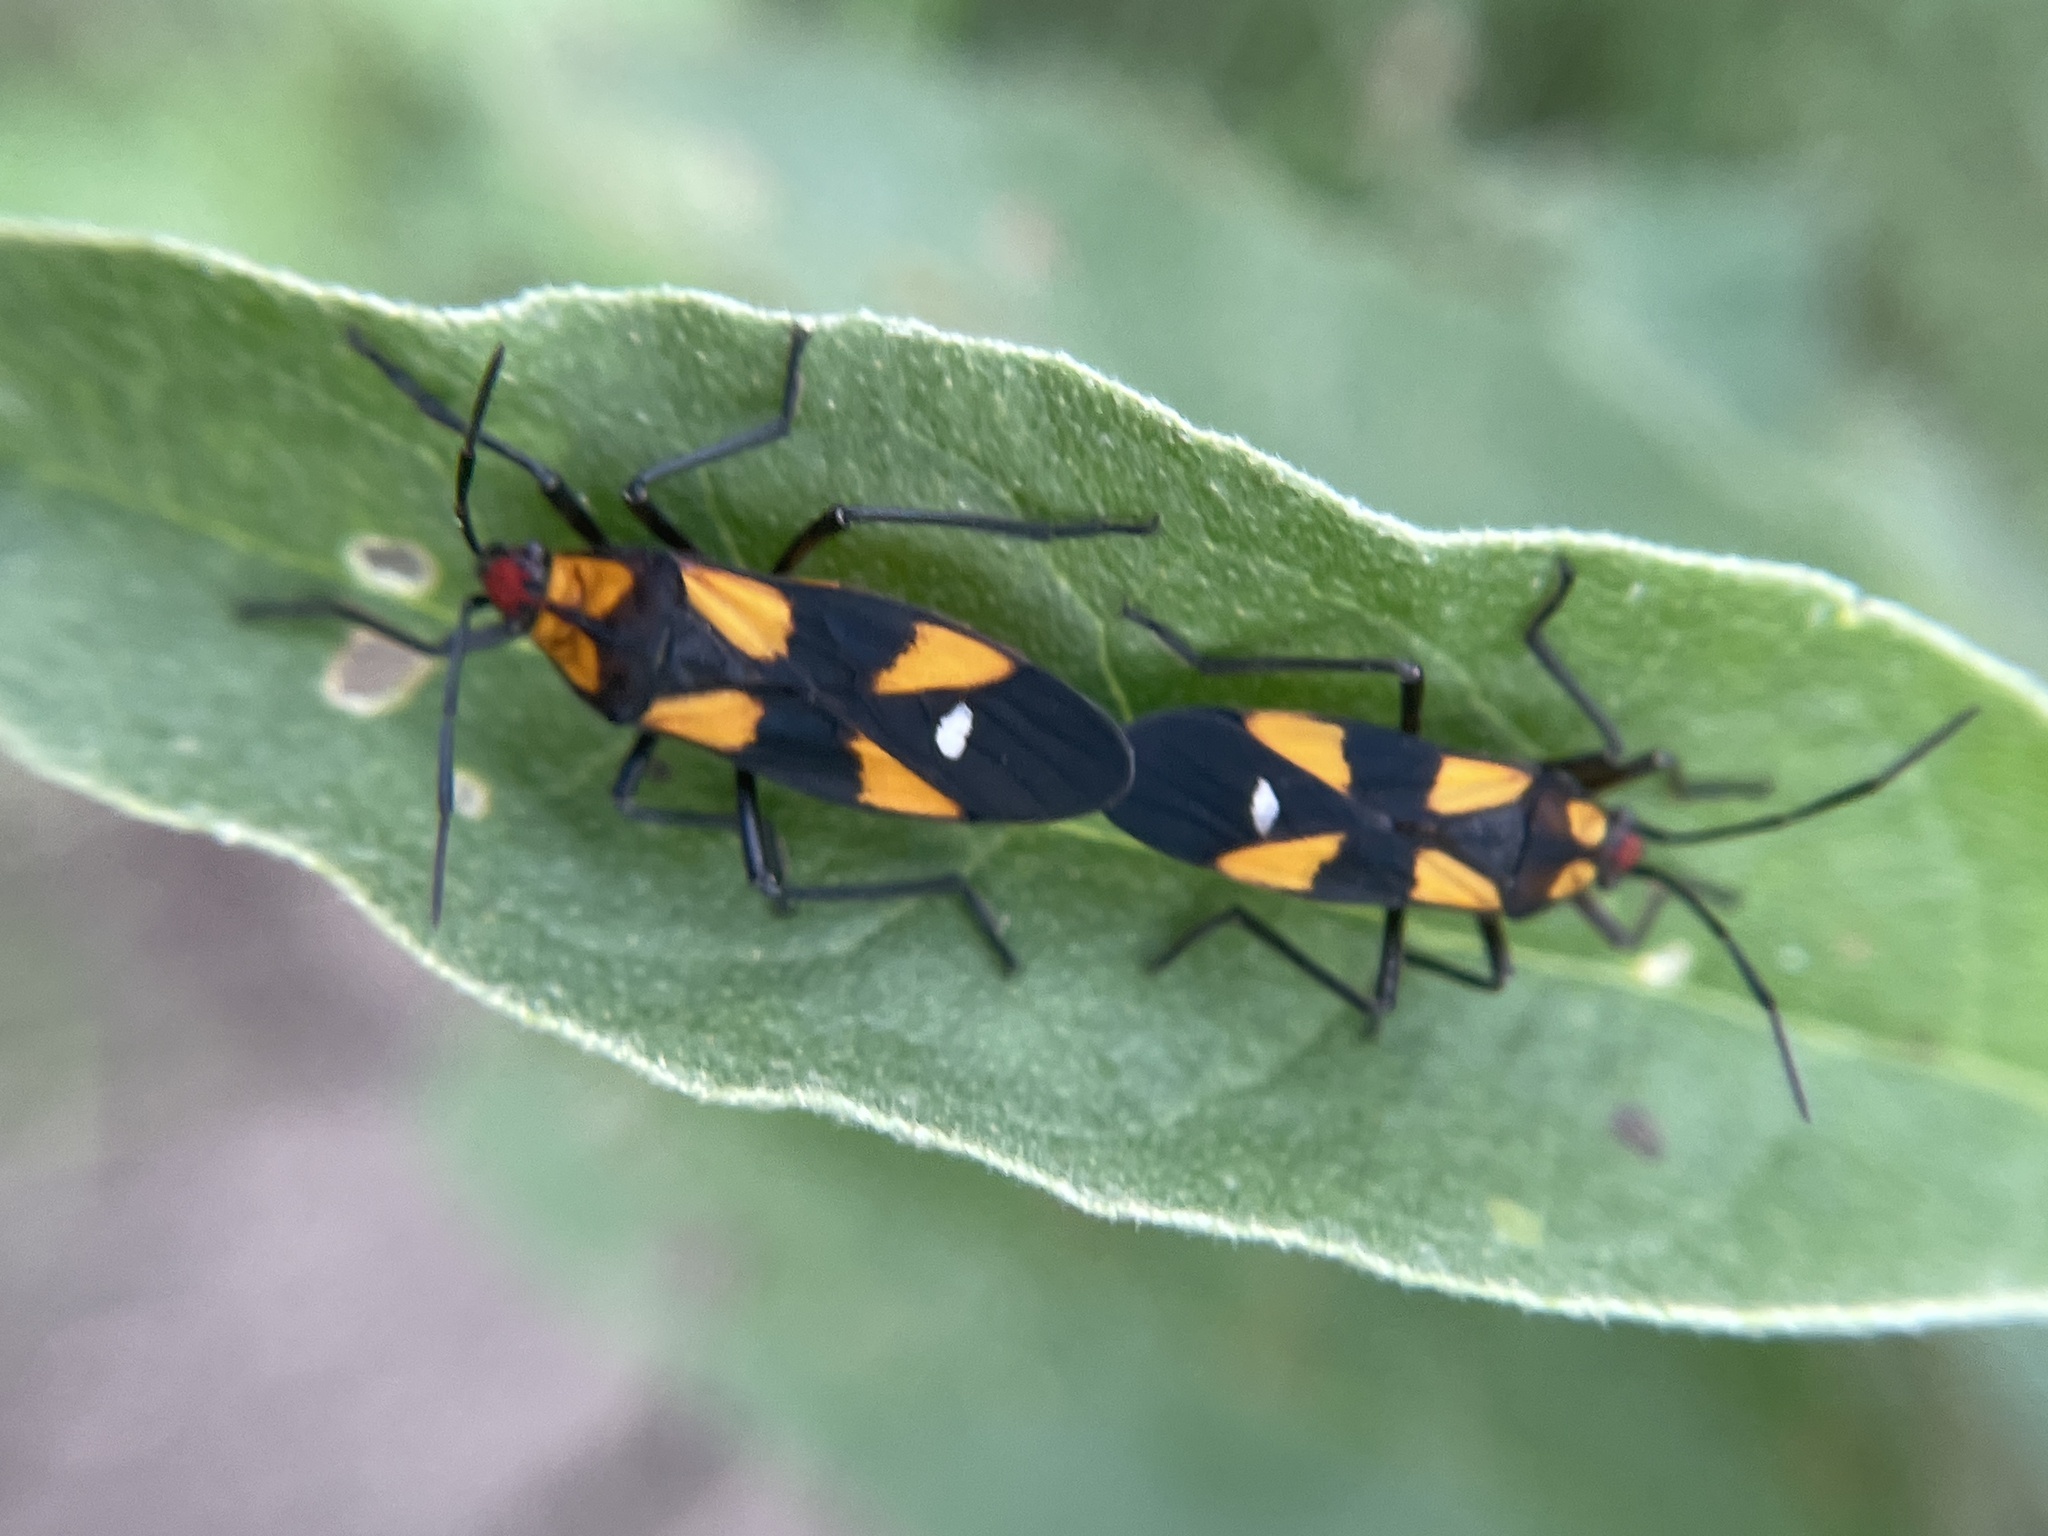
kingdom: Animalia
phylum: Arthropoda
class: Insecta
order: Hemiptera
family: Lygaeidae
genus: Oncopeltus
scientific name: Oncopeltus sexmaculatus
